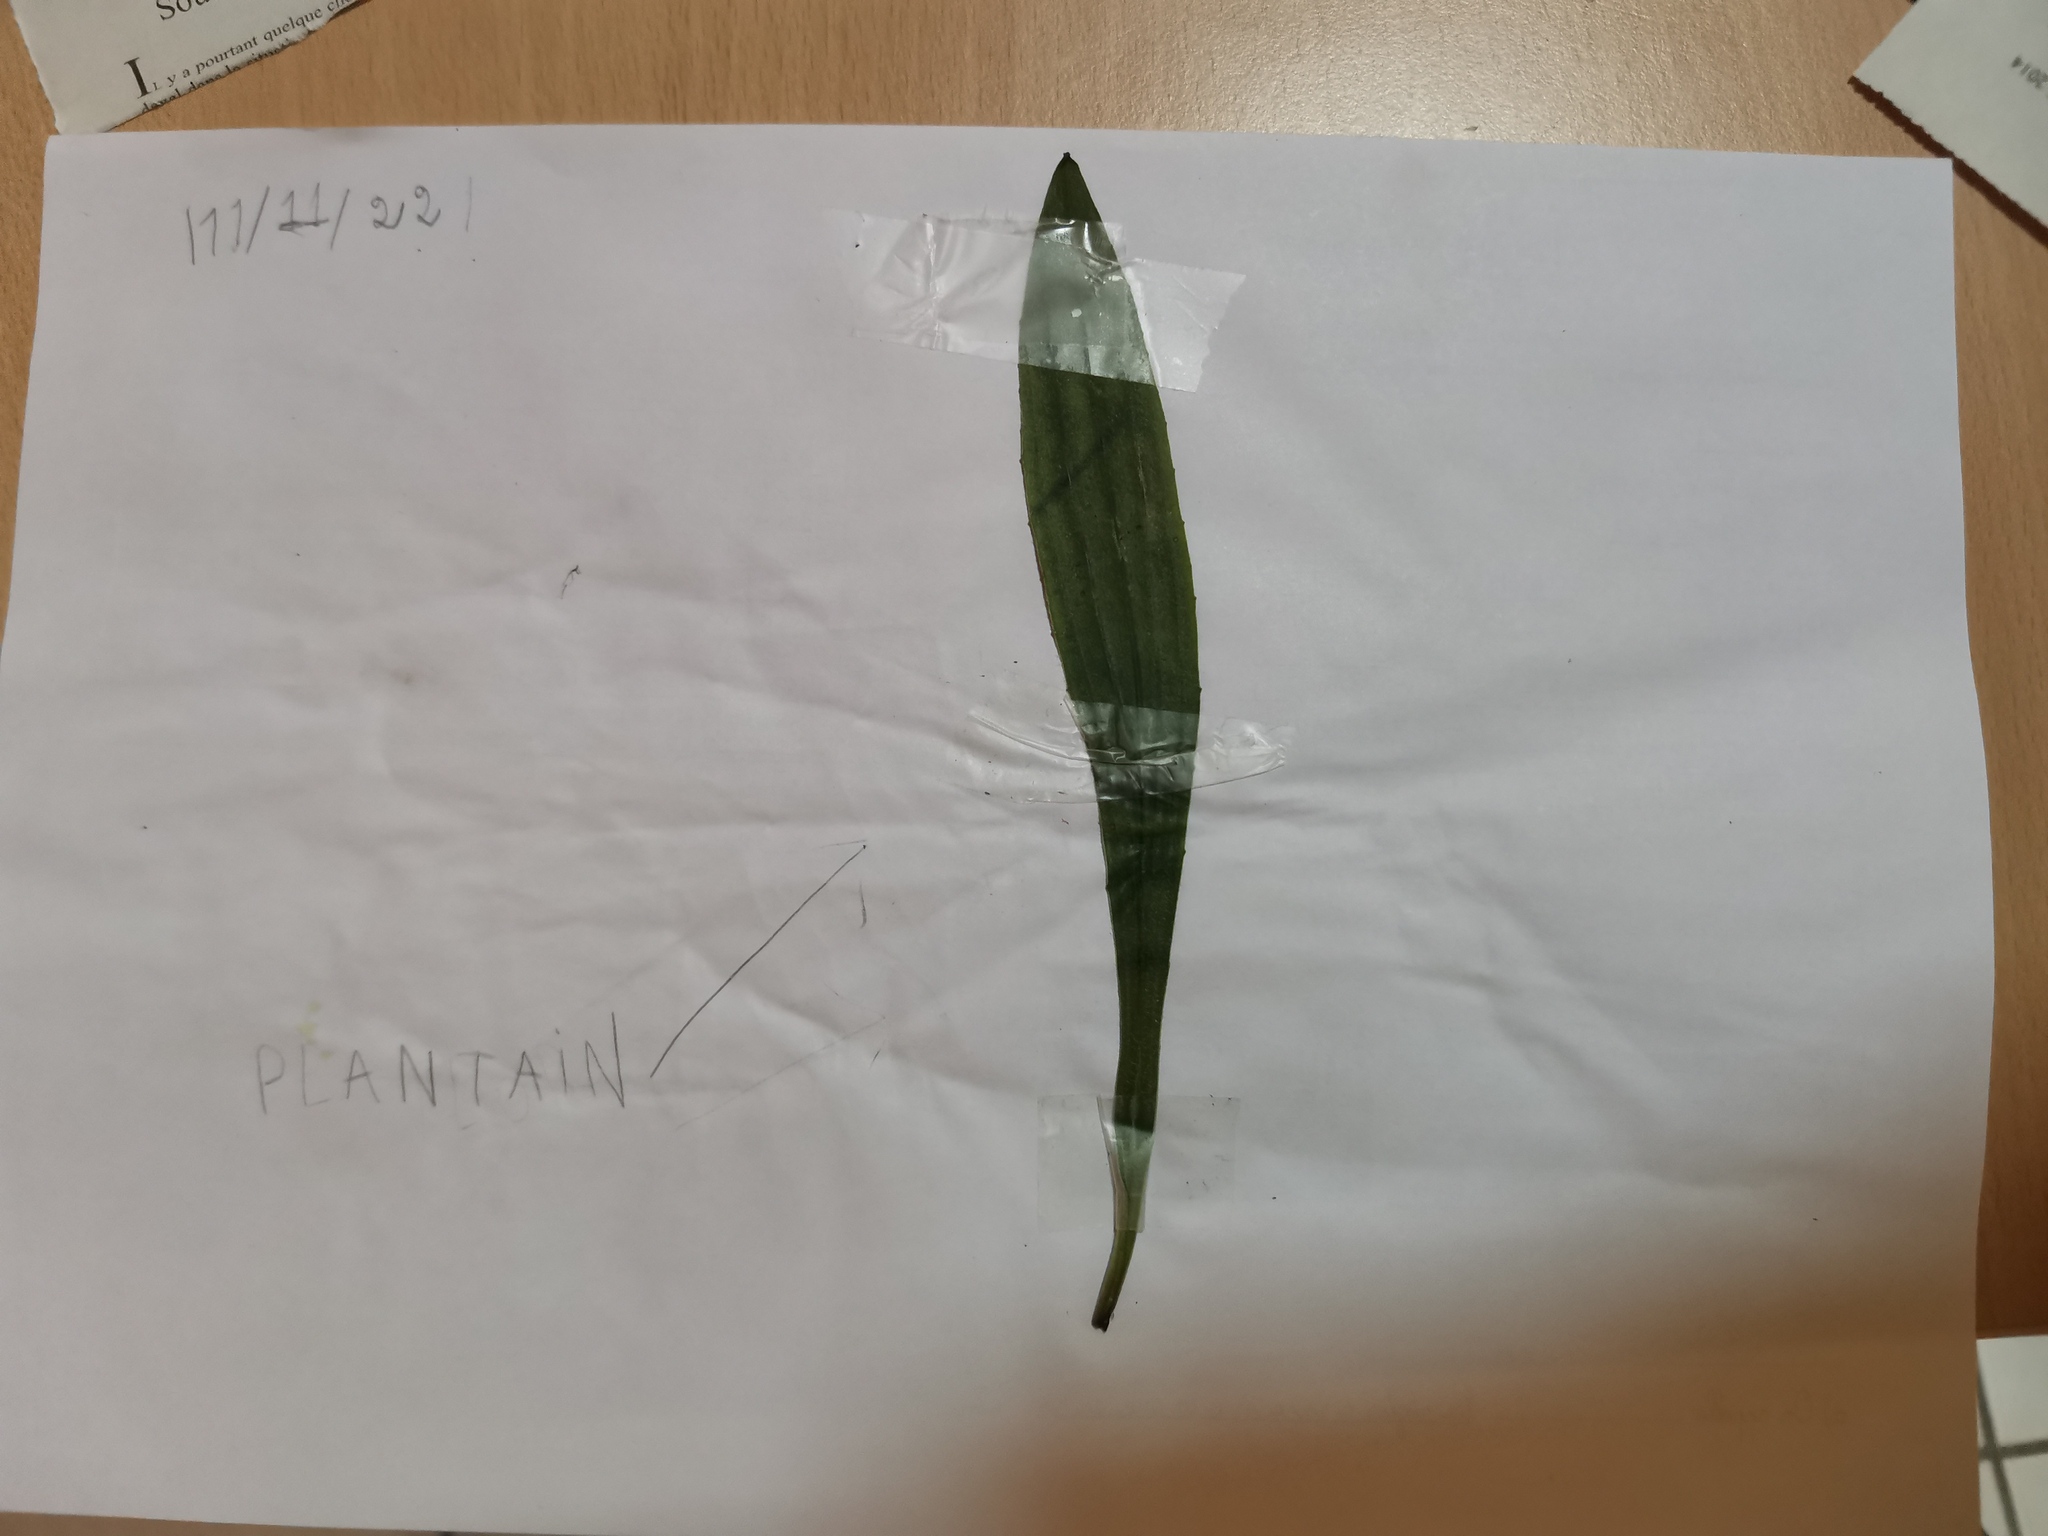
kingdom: Plantae
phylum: Tracheophyta
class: Magnoliopsida
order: Lamiales
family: Plantaginaceae
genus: Plantago
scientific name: Plantago lanceolata
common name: Ribwort plantain
